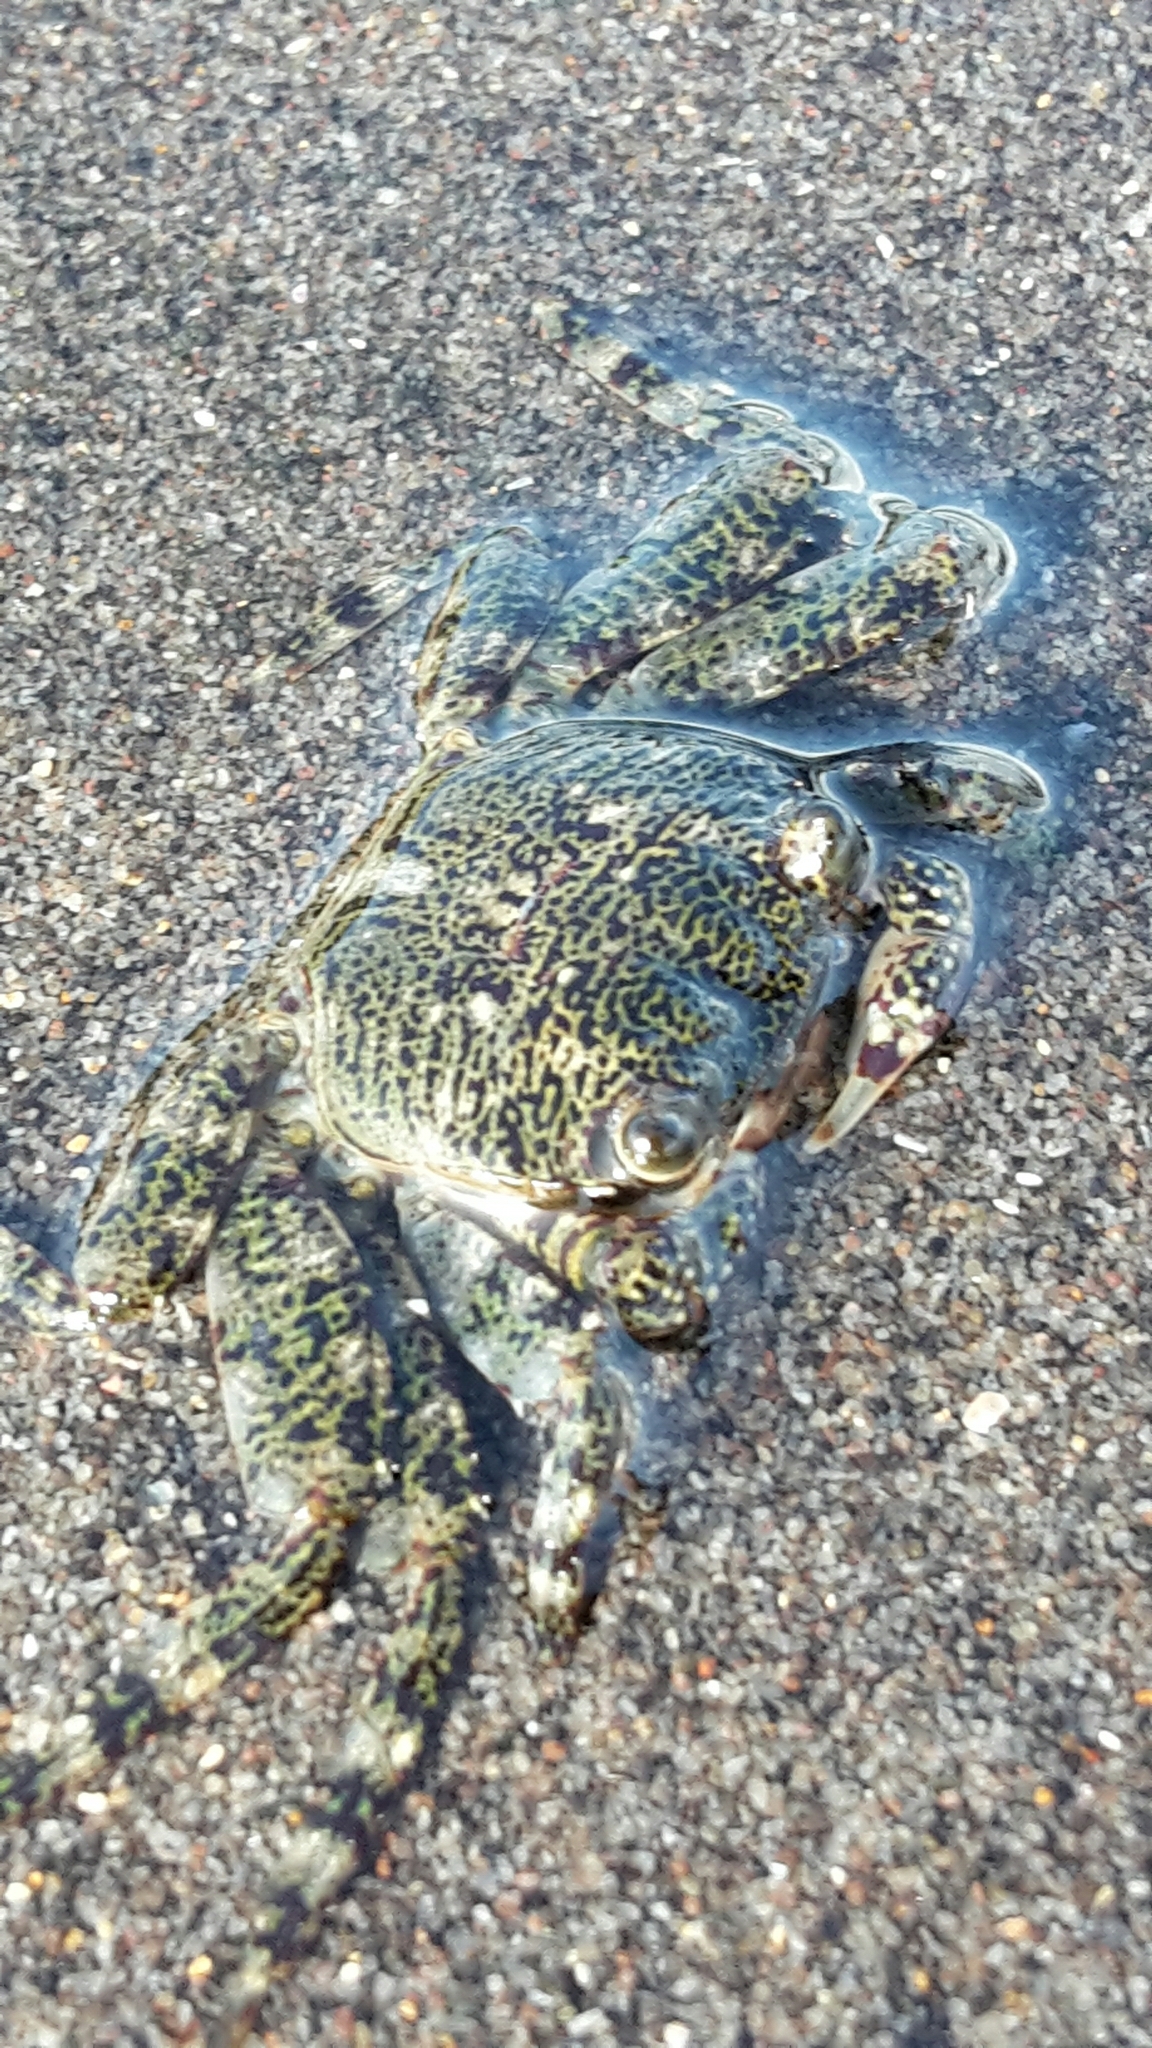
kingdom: Animalia
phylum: Arthropoda
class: Malacostraca
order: Decapoda
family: Grapsidae
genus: Leptograpsus
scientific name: Leptograpsus variegatus
